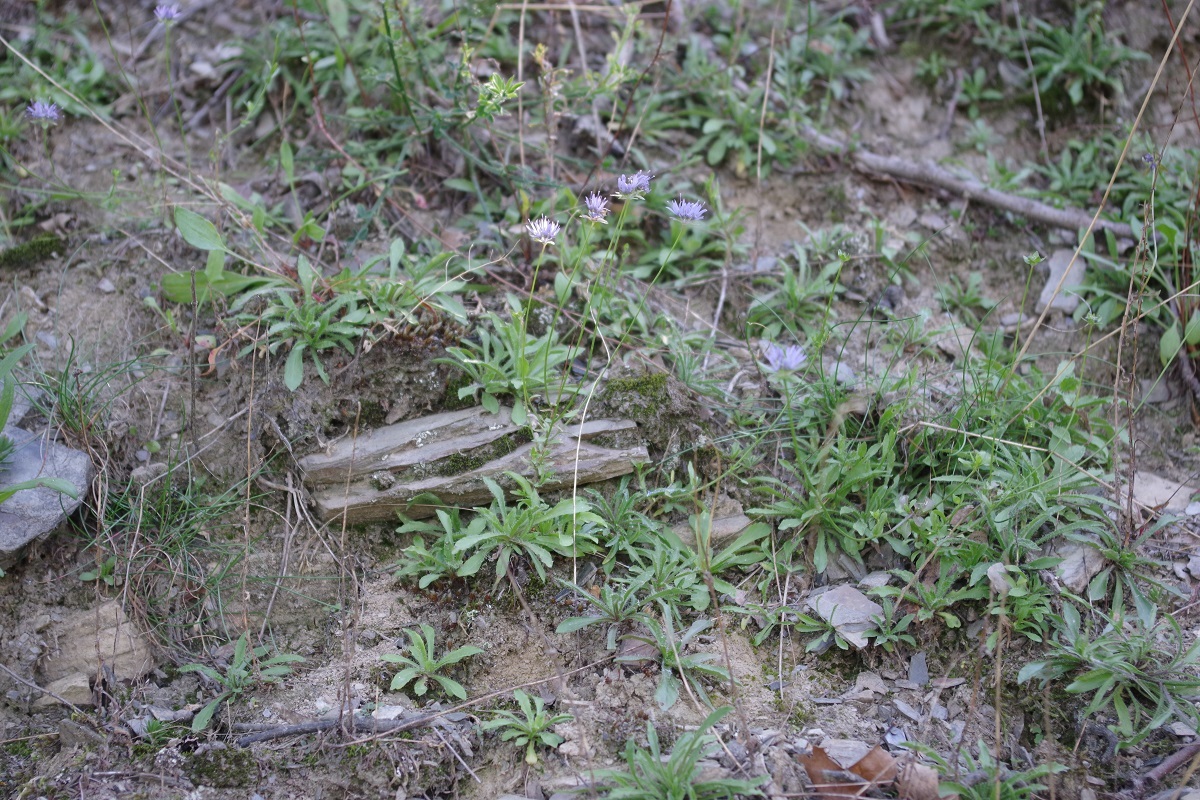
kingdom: Plantae
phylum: Tracheophyta
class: Magnoliopsida
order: Asterales
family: Campanulaceae
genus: Jasione
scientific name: Jasione montana
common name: Sheep's-bit
